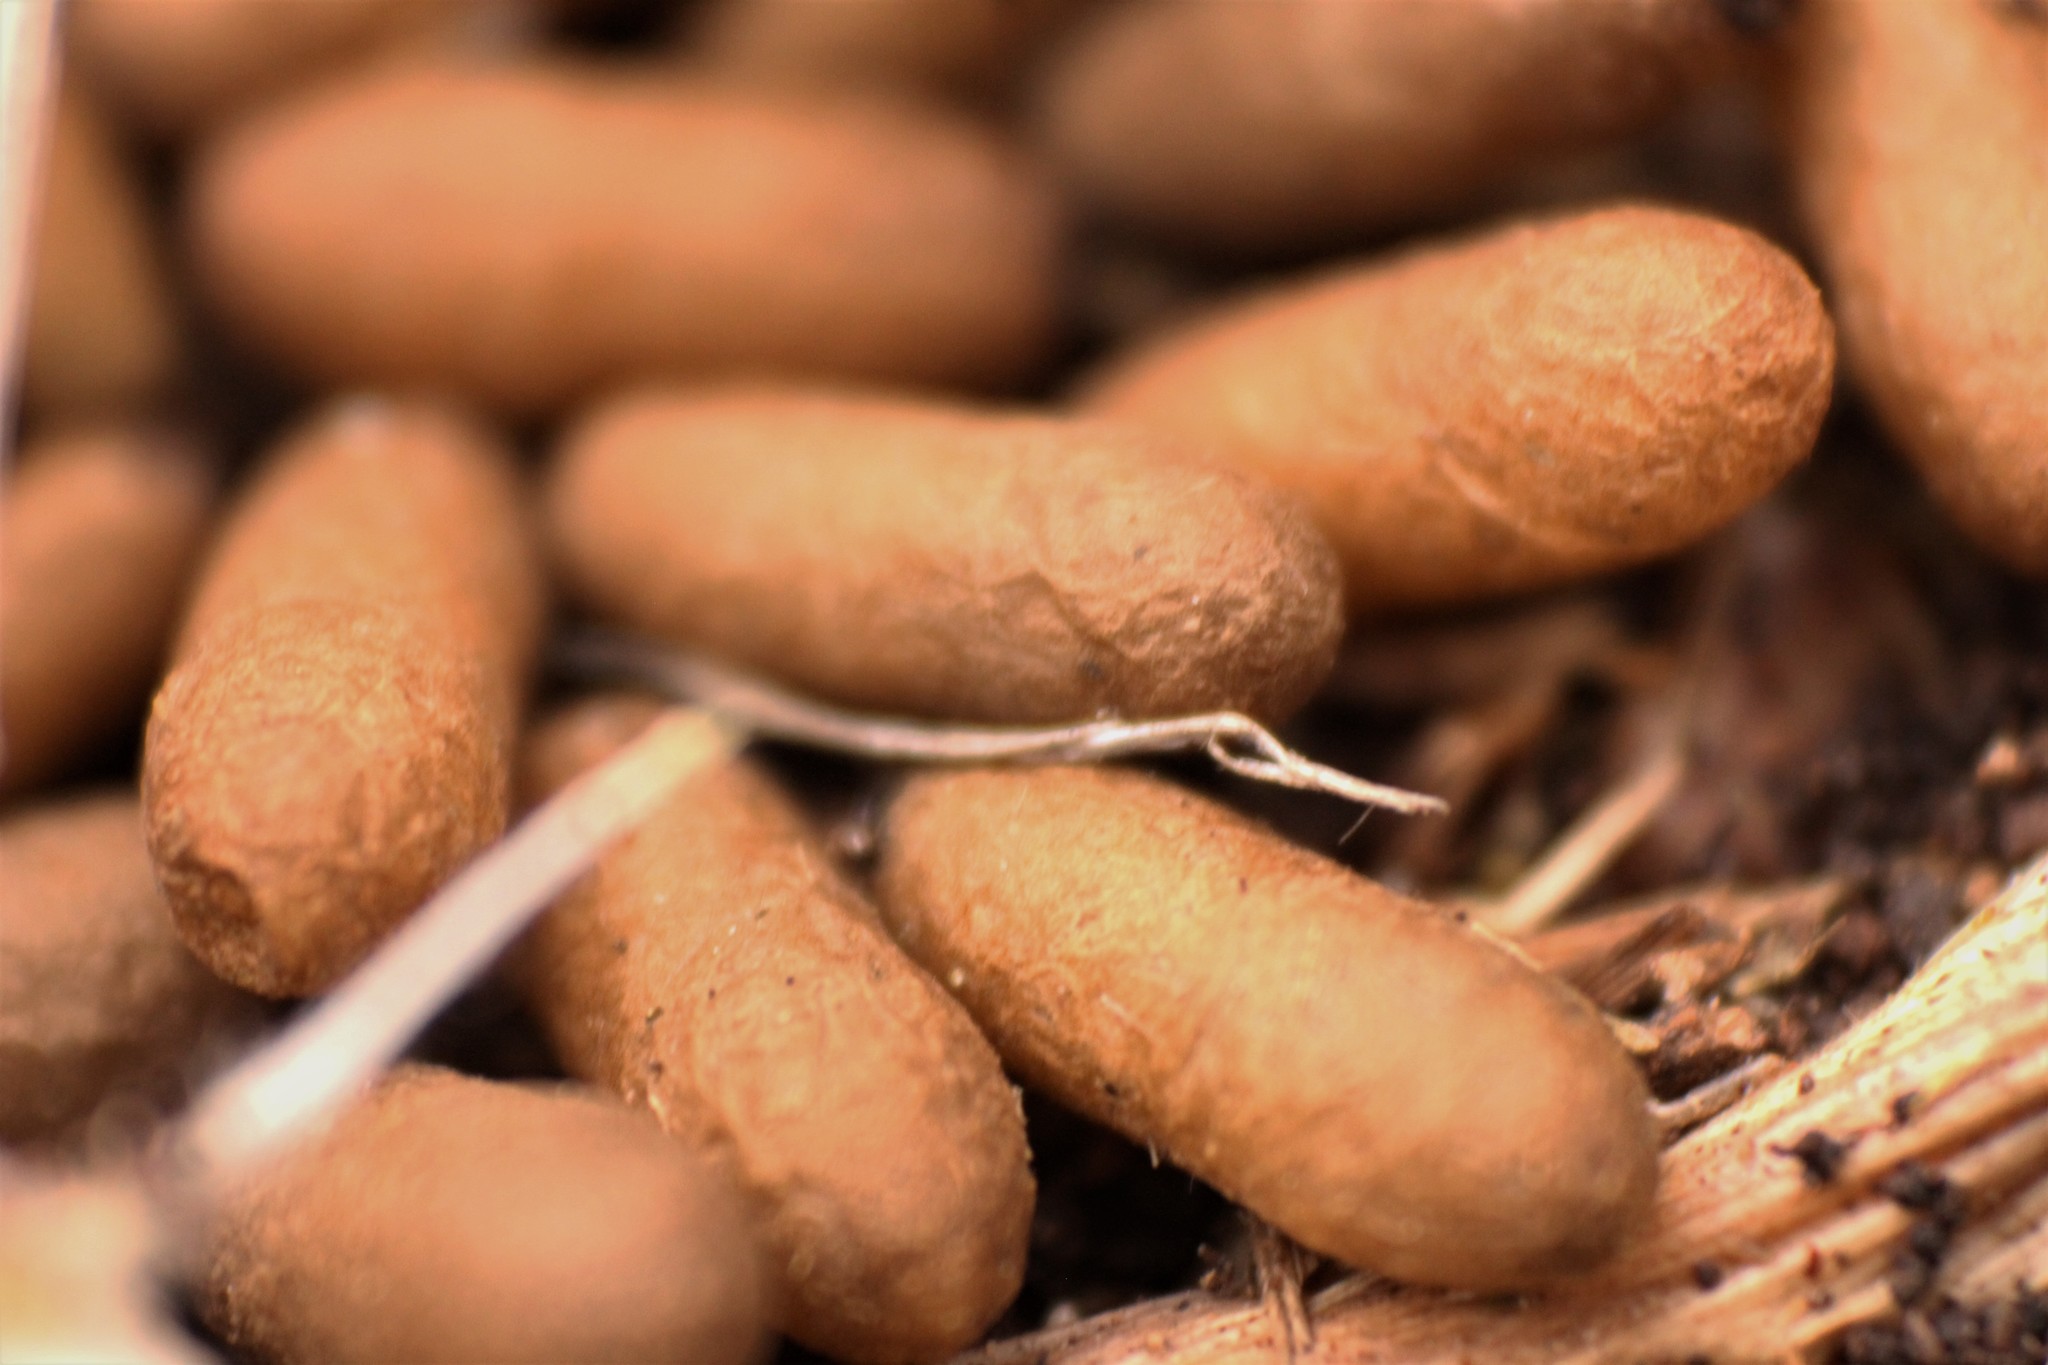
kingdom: Animalia
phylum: Arthropoda
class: Insecta
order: Hymenoptera
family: Formicidae
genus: Odontomachus
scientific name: Odontomachus
